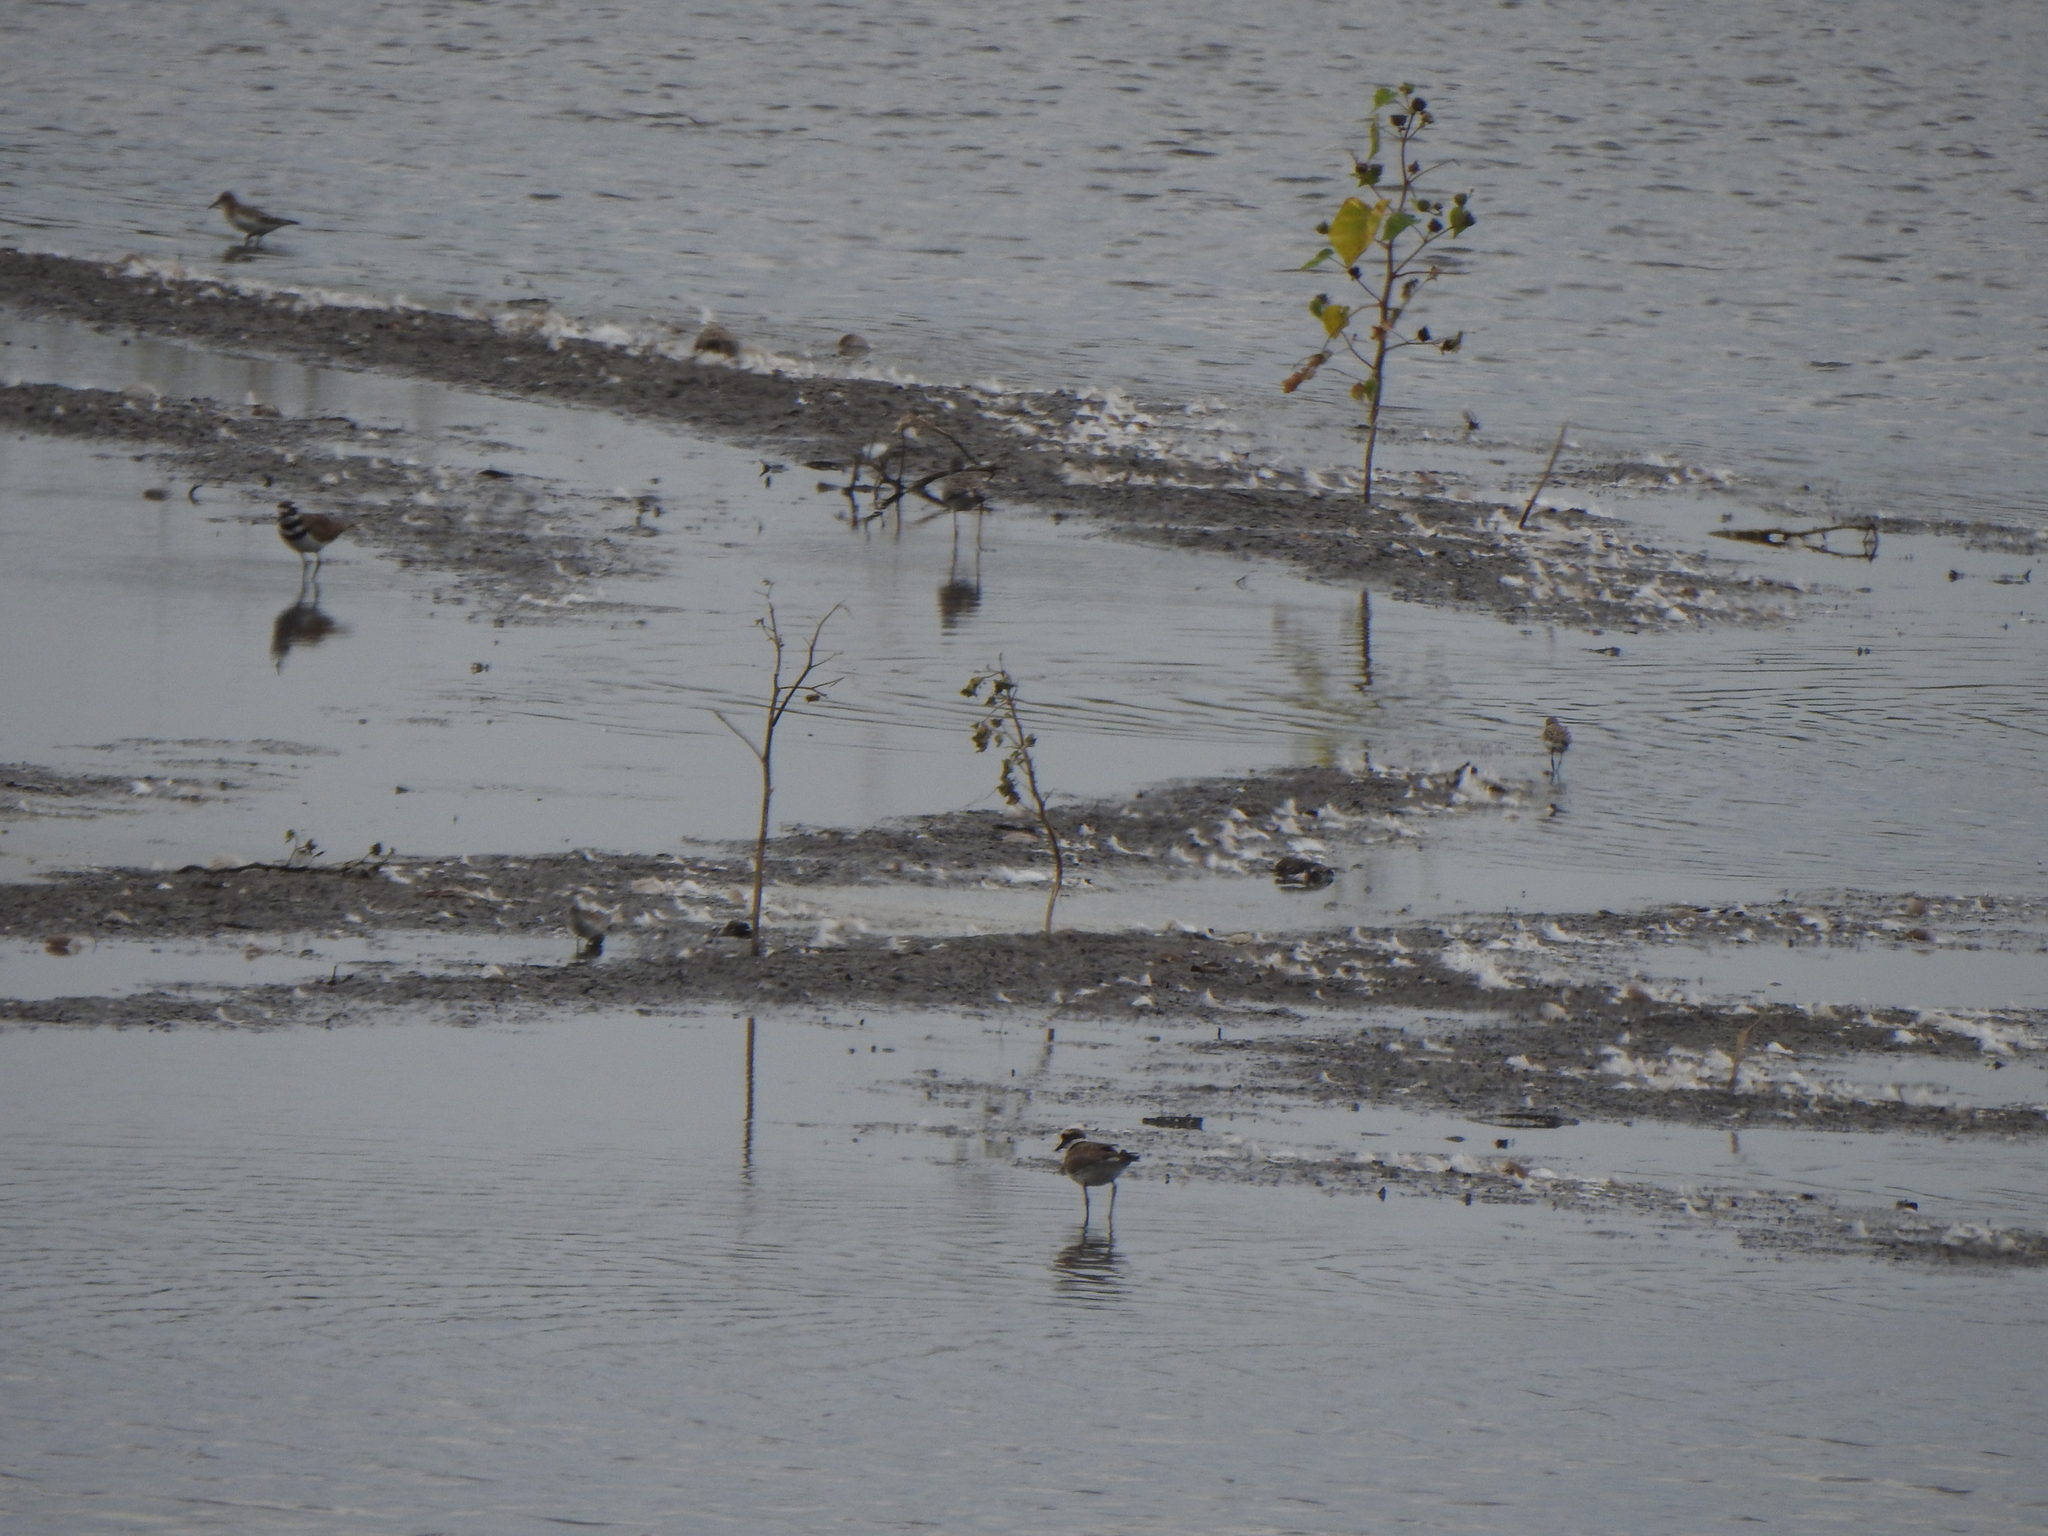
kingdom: Animalia
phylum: Chordata
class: Aves
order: Charadriiformes
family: Charadriidae
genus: Charadrius
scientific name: Charadrius vociferus
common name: Killdeer
